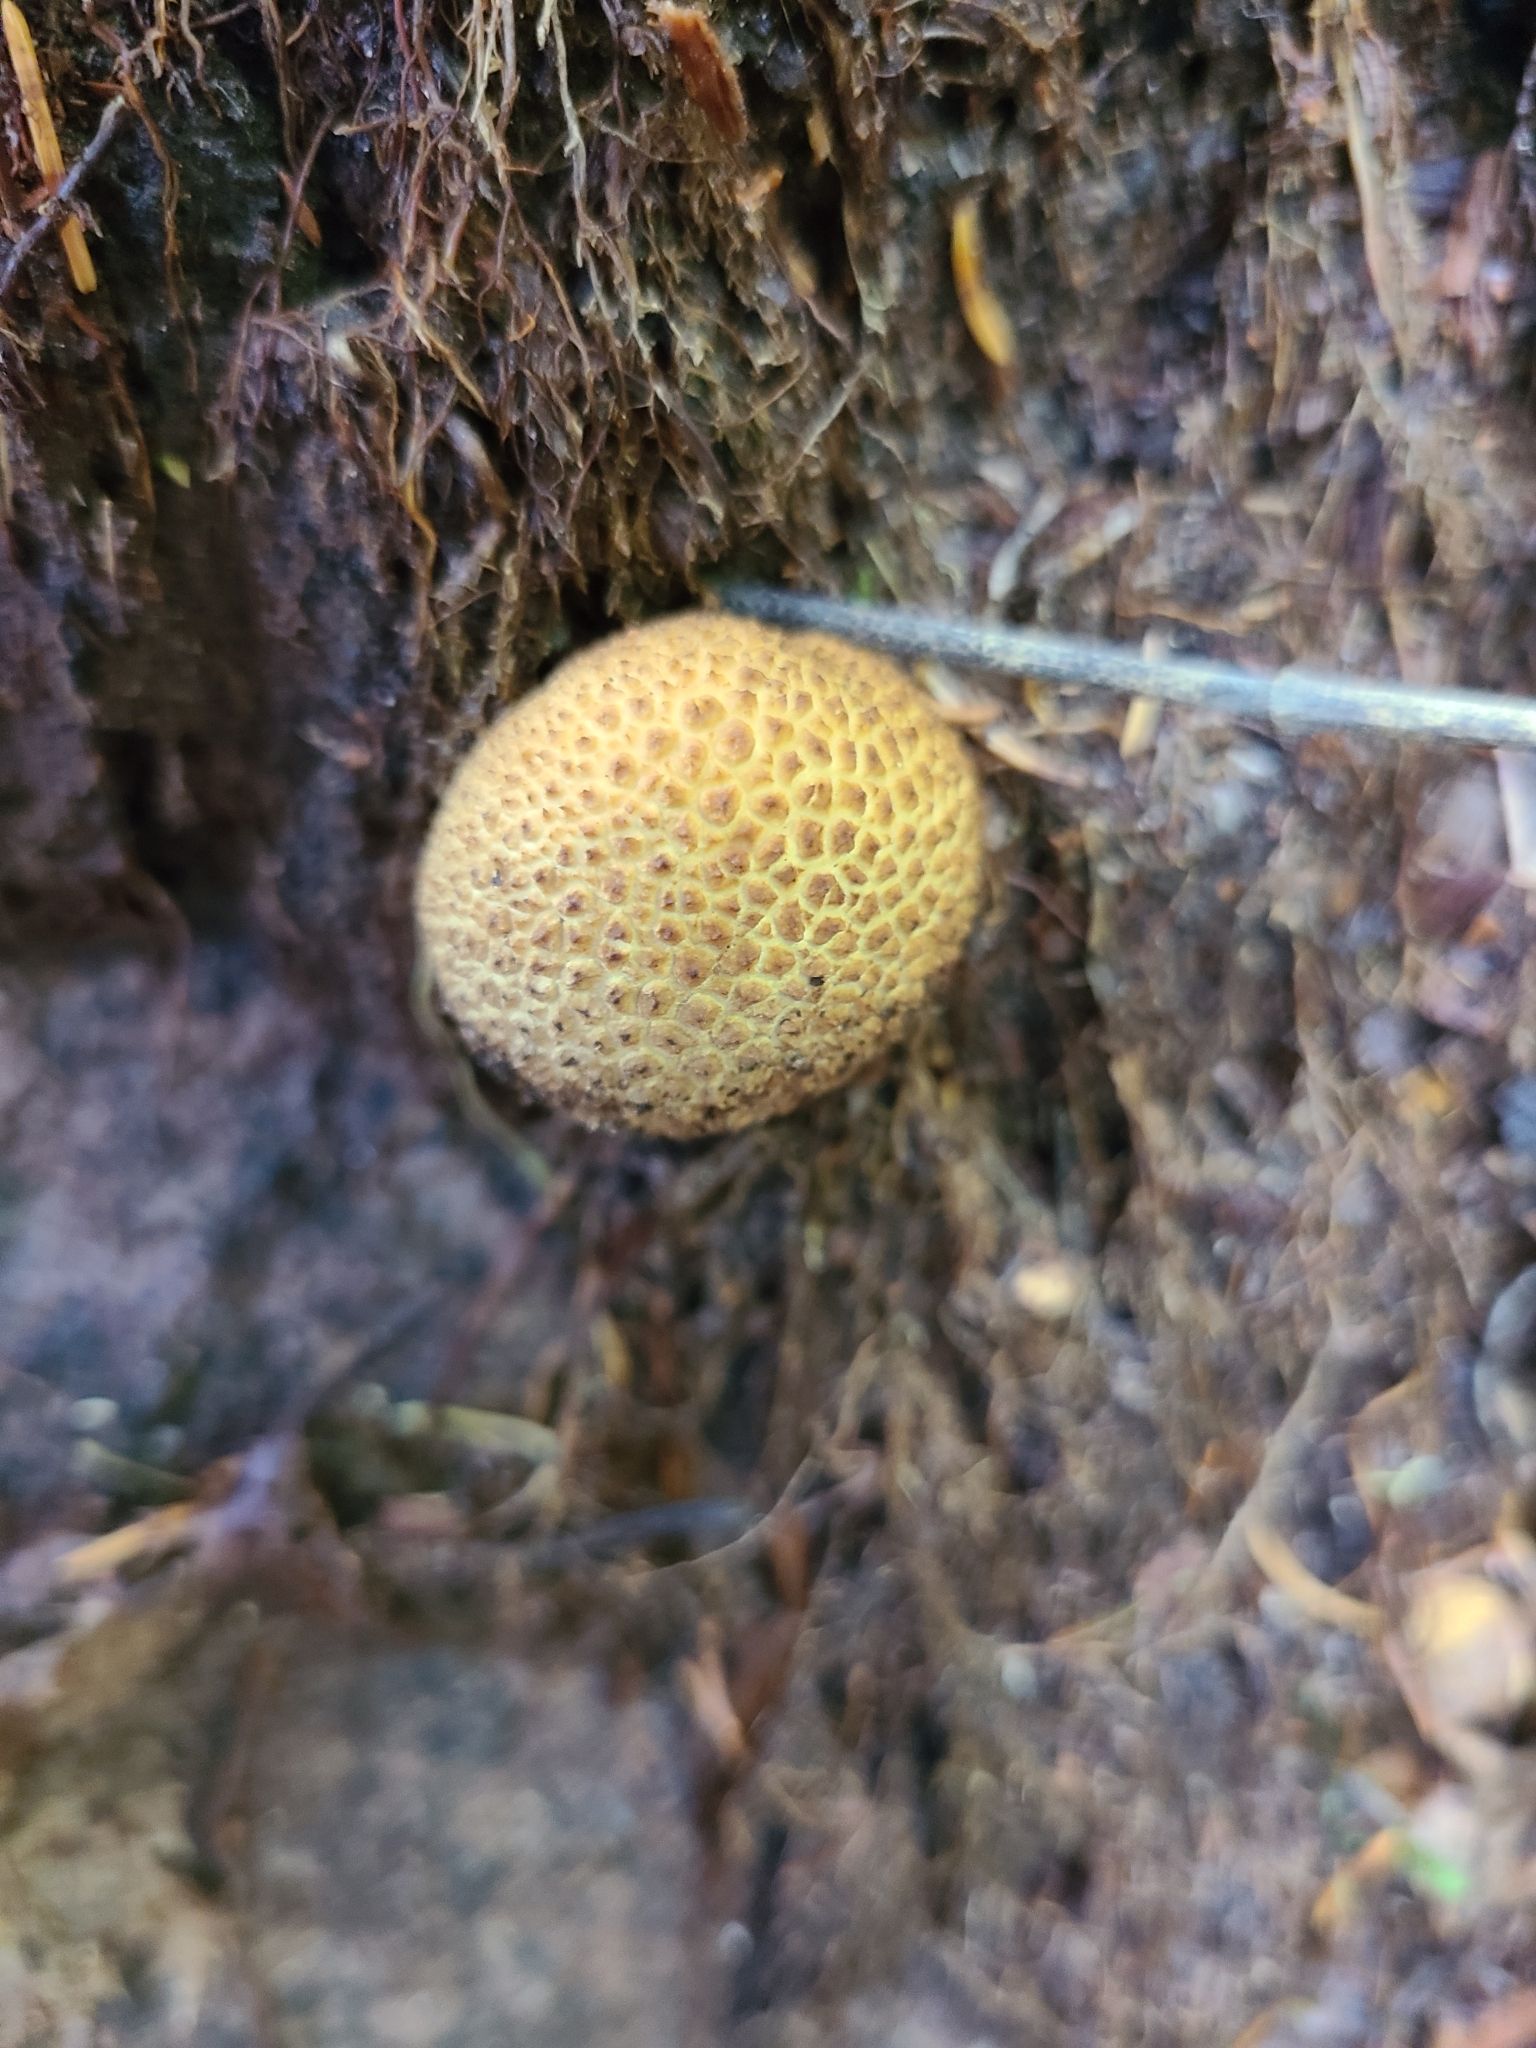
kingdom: Fungi
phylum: Basidiomycota
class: Agaricomycetes
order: Boletales
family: Sclerodermataceae
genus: Scleroderma
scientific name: Scleroderma citrinum
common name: Common earthball
